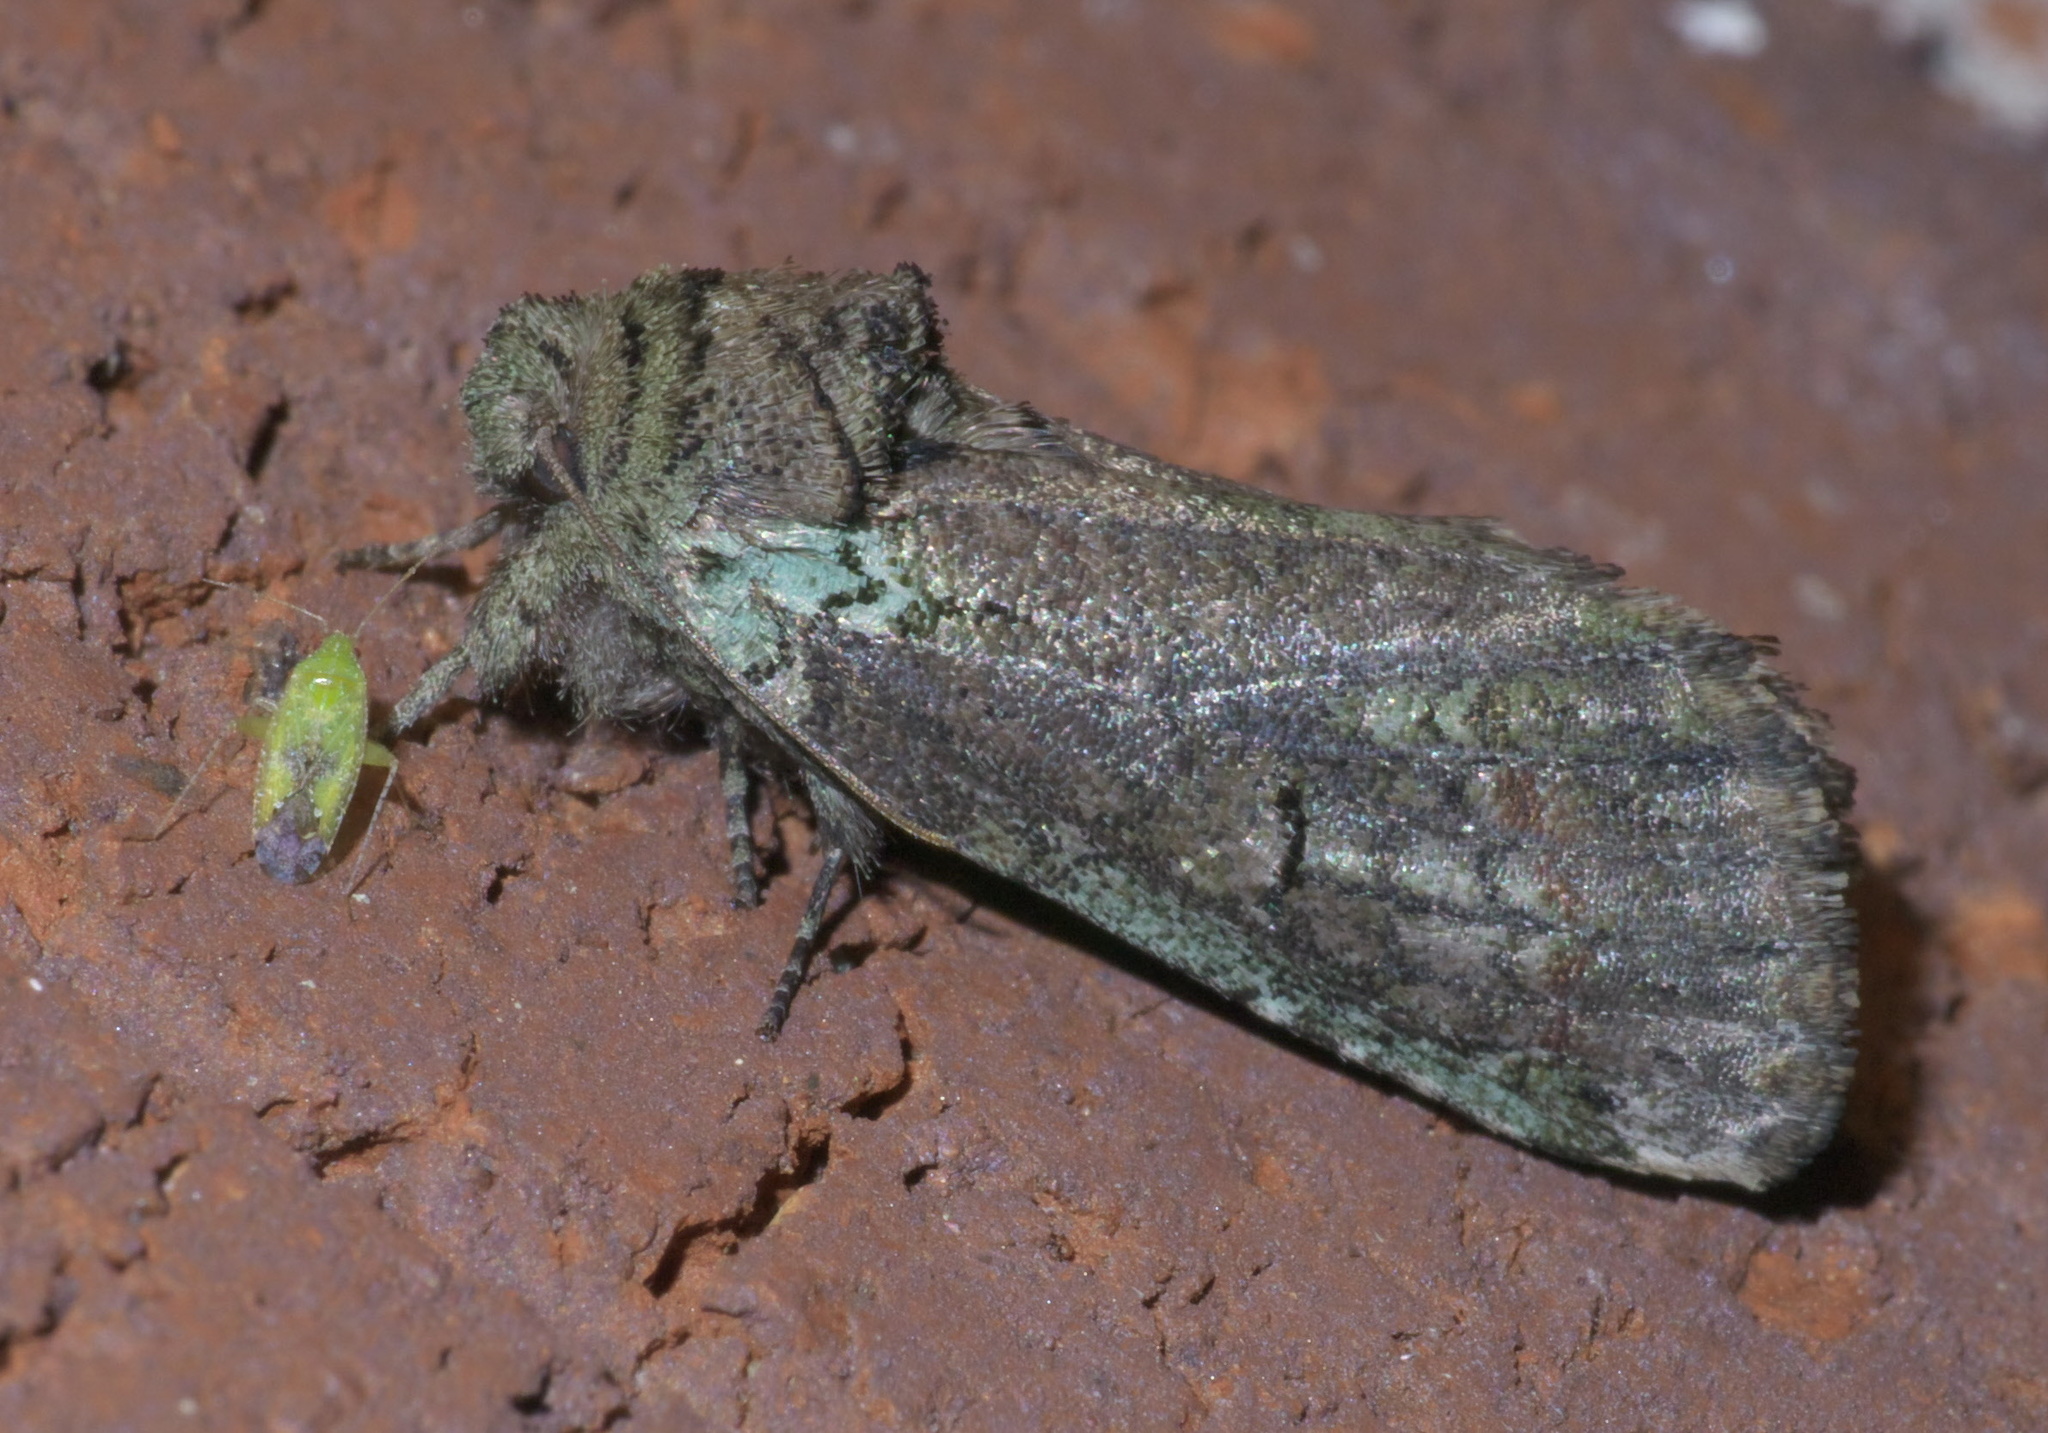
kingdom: Animalia
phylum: Arthropoda
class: Insecta
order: Lepidoptera
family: Notodontidae
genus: Schizura
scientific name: Schizura
